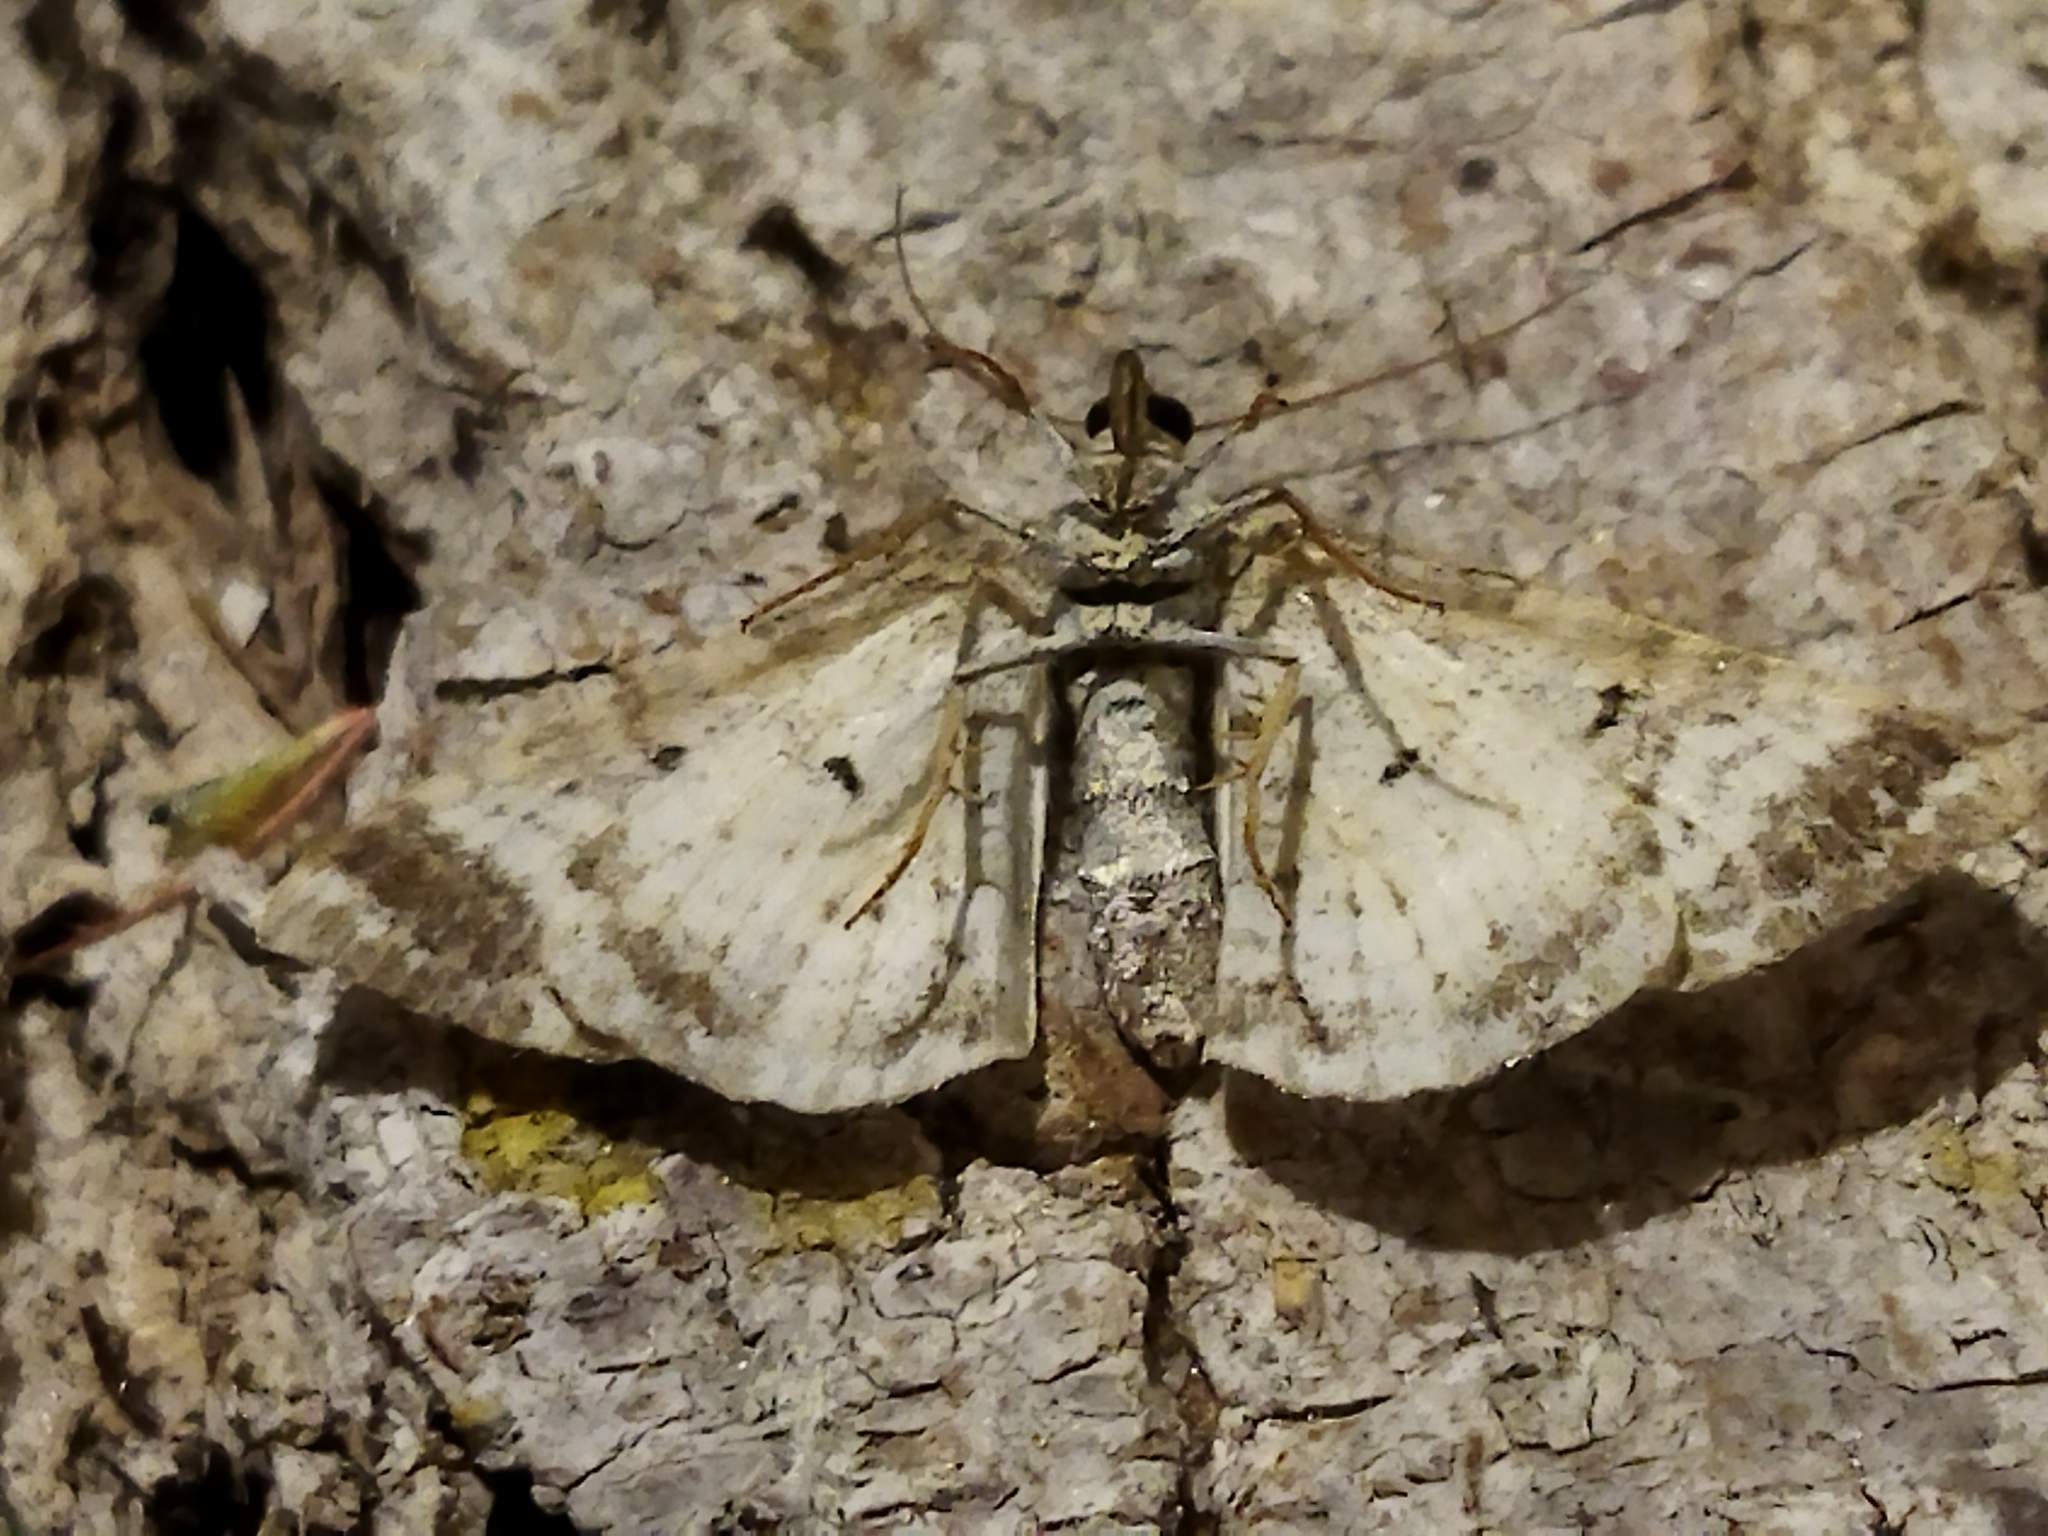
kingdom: Animalia
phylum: Arthropoda
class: Insecta
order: Lepidoptera
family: Geometridae
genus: Epirrhoe
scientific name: Epirrhoe alternata
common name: Common carpet
